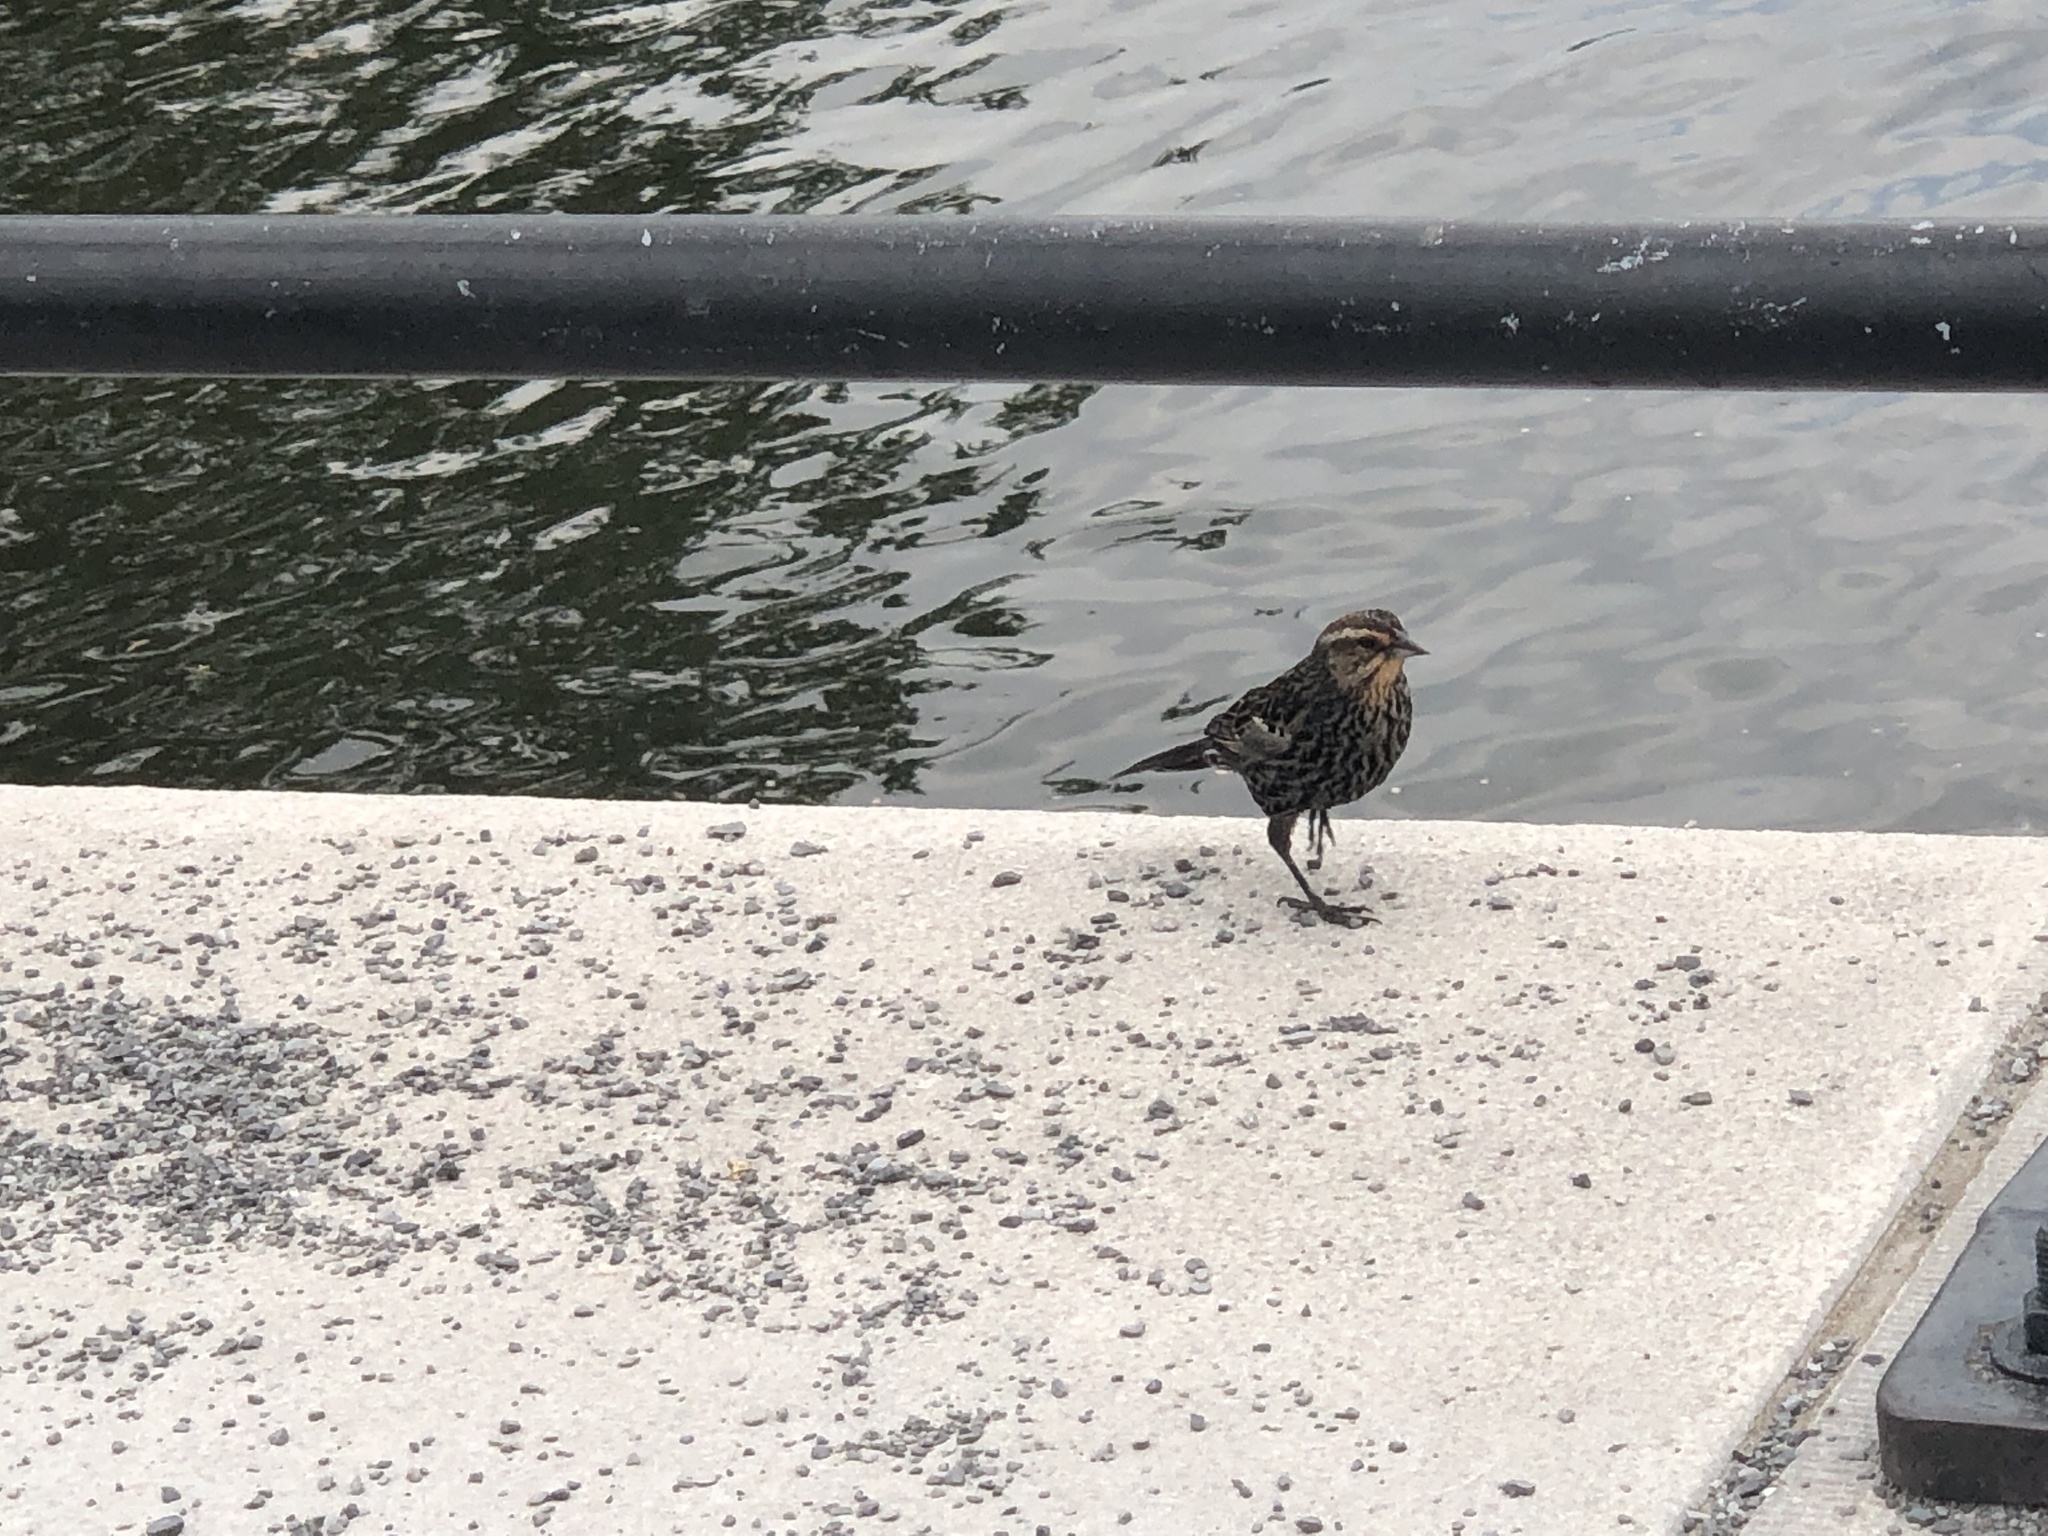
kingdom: Animalia
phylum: Chordata
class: Aves
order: Passeriformes
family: Icteridae
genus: Agelaius
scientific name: Agelaius phoeniceus
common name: Red-winged blackbird
